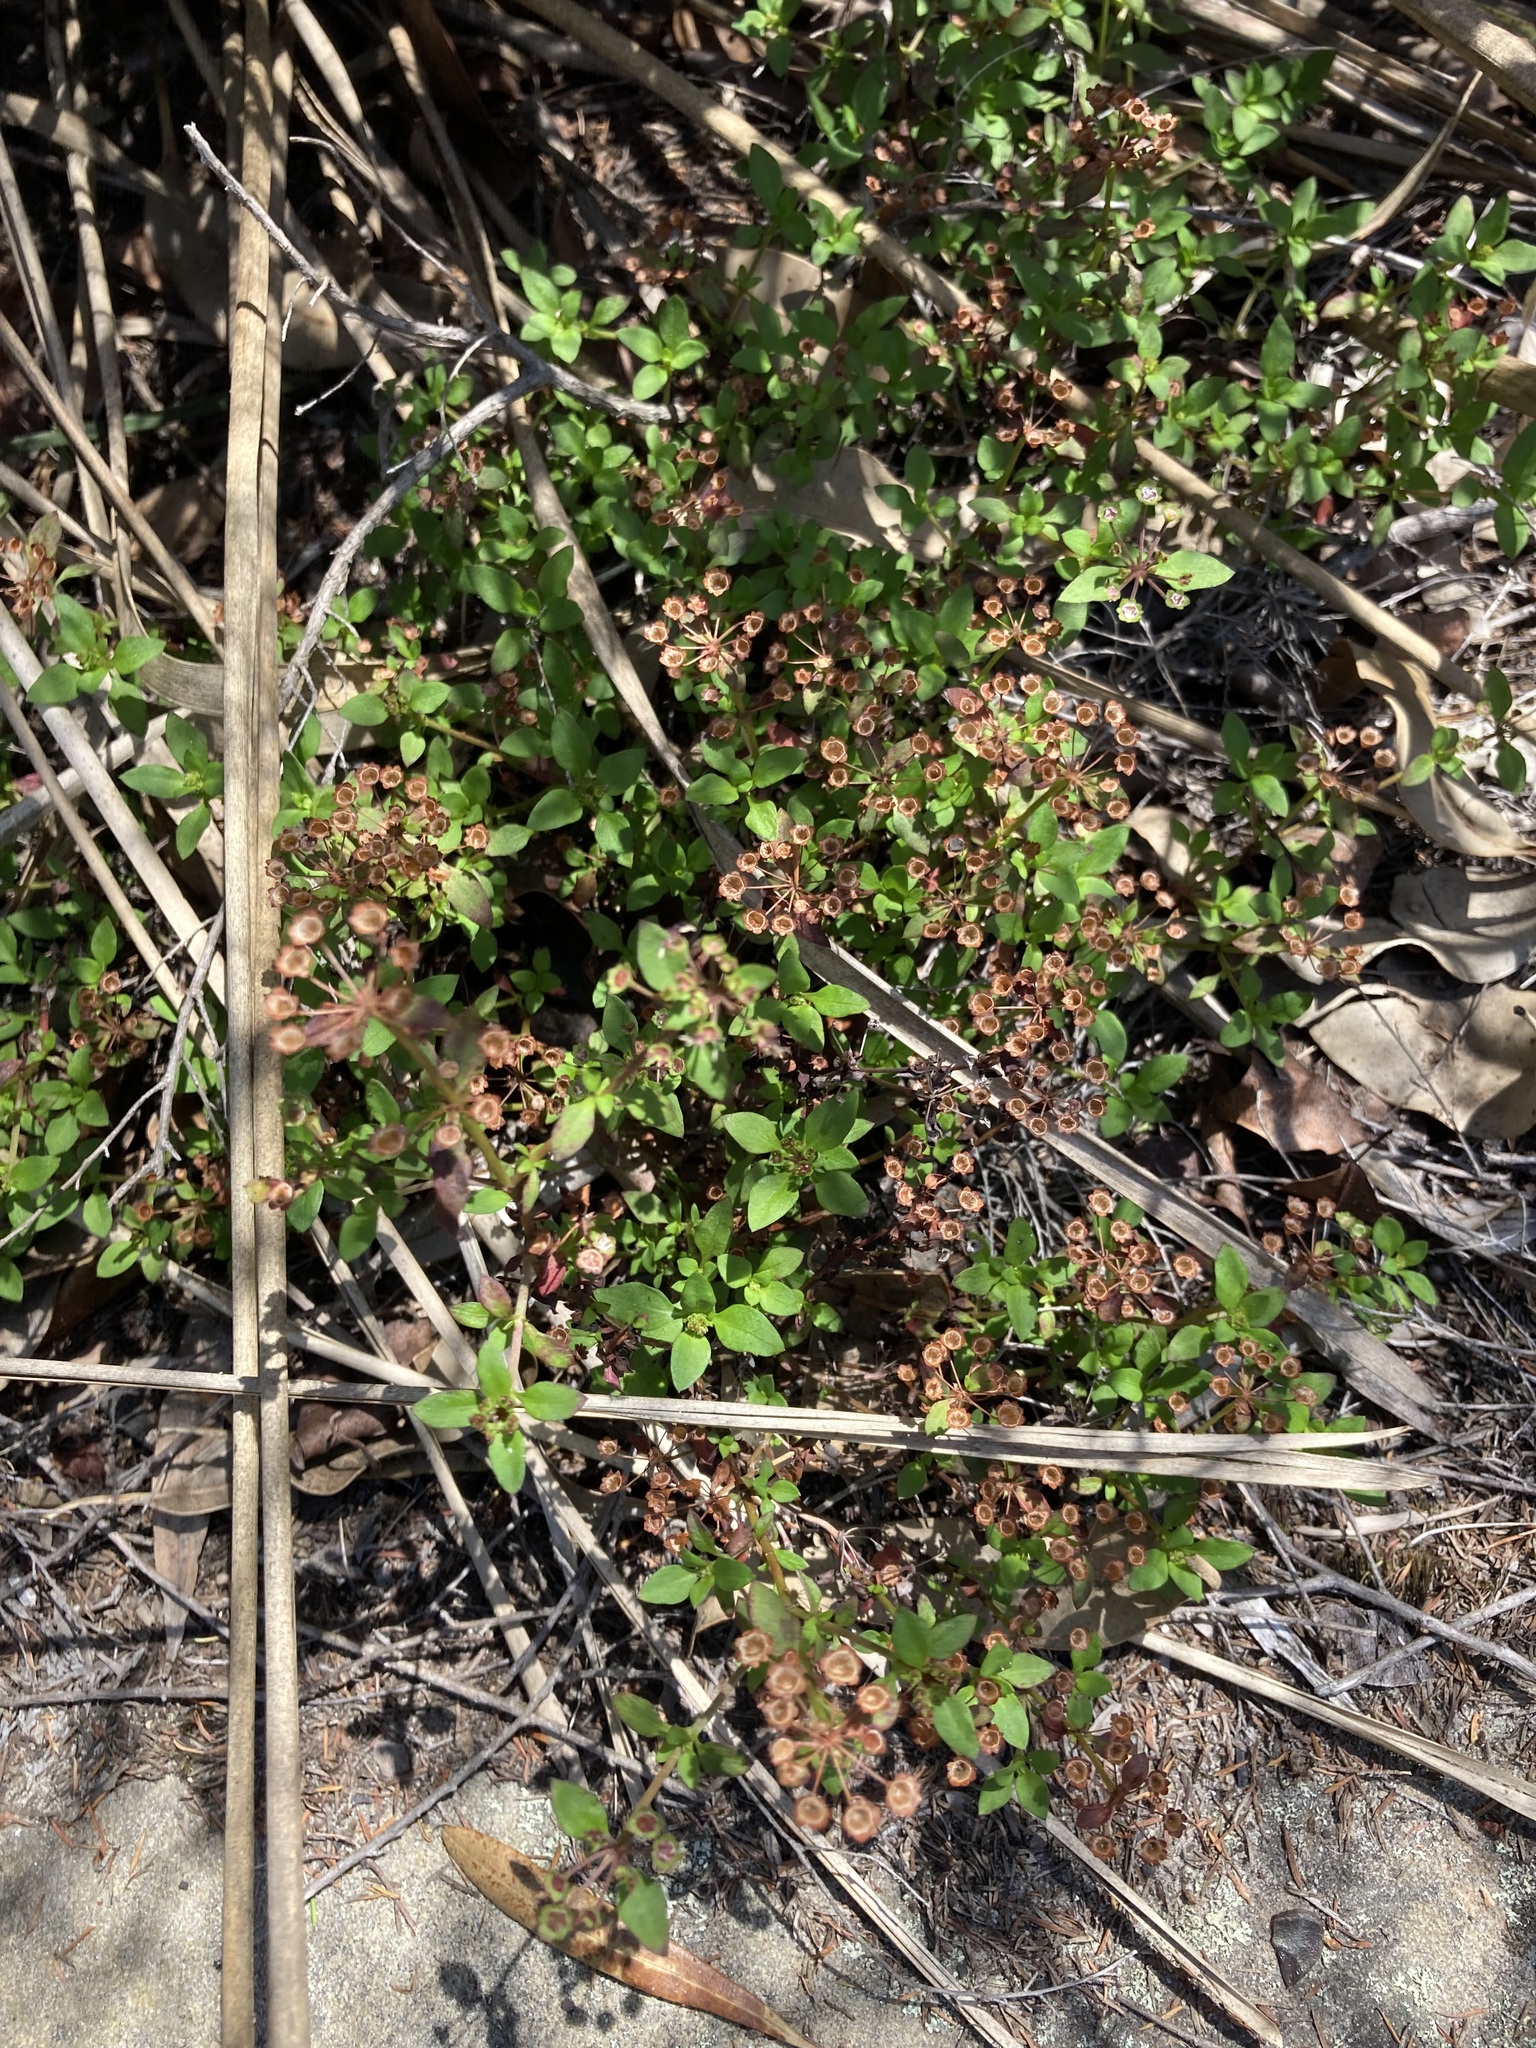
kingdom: Plantae
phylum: Tracheophyta
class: Magnoliopsida
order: Gentianales
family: Rubiaceae
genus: Pomax
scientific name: Pomax umbellata
